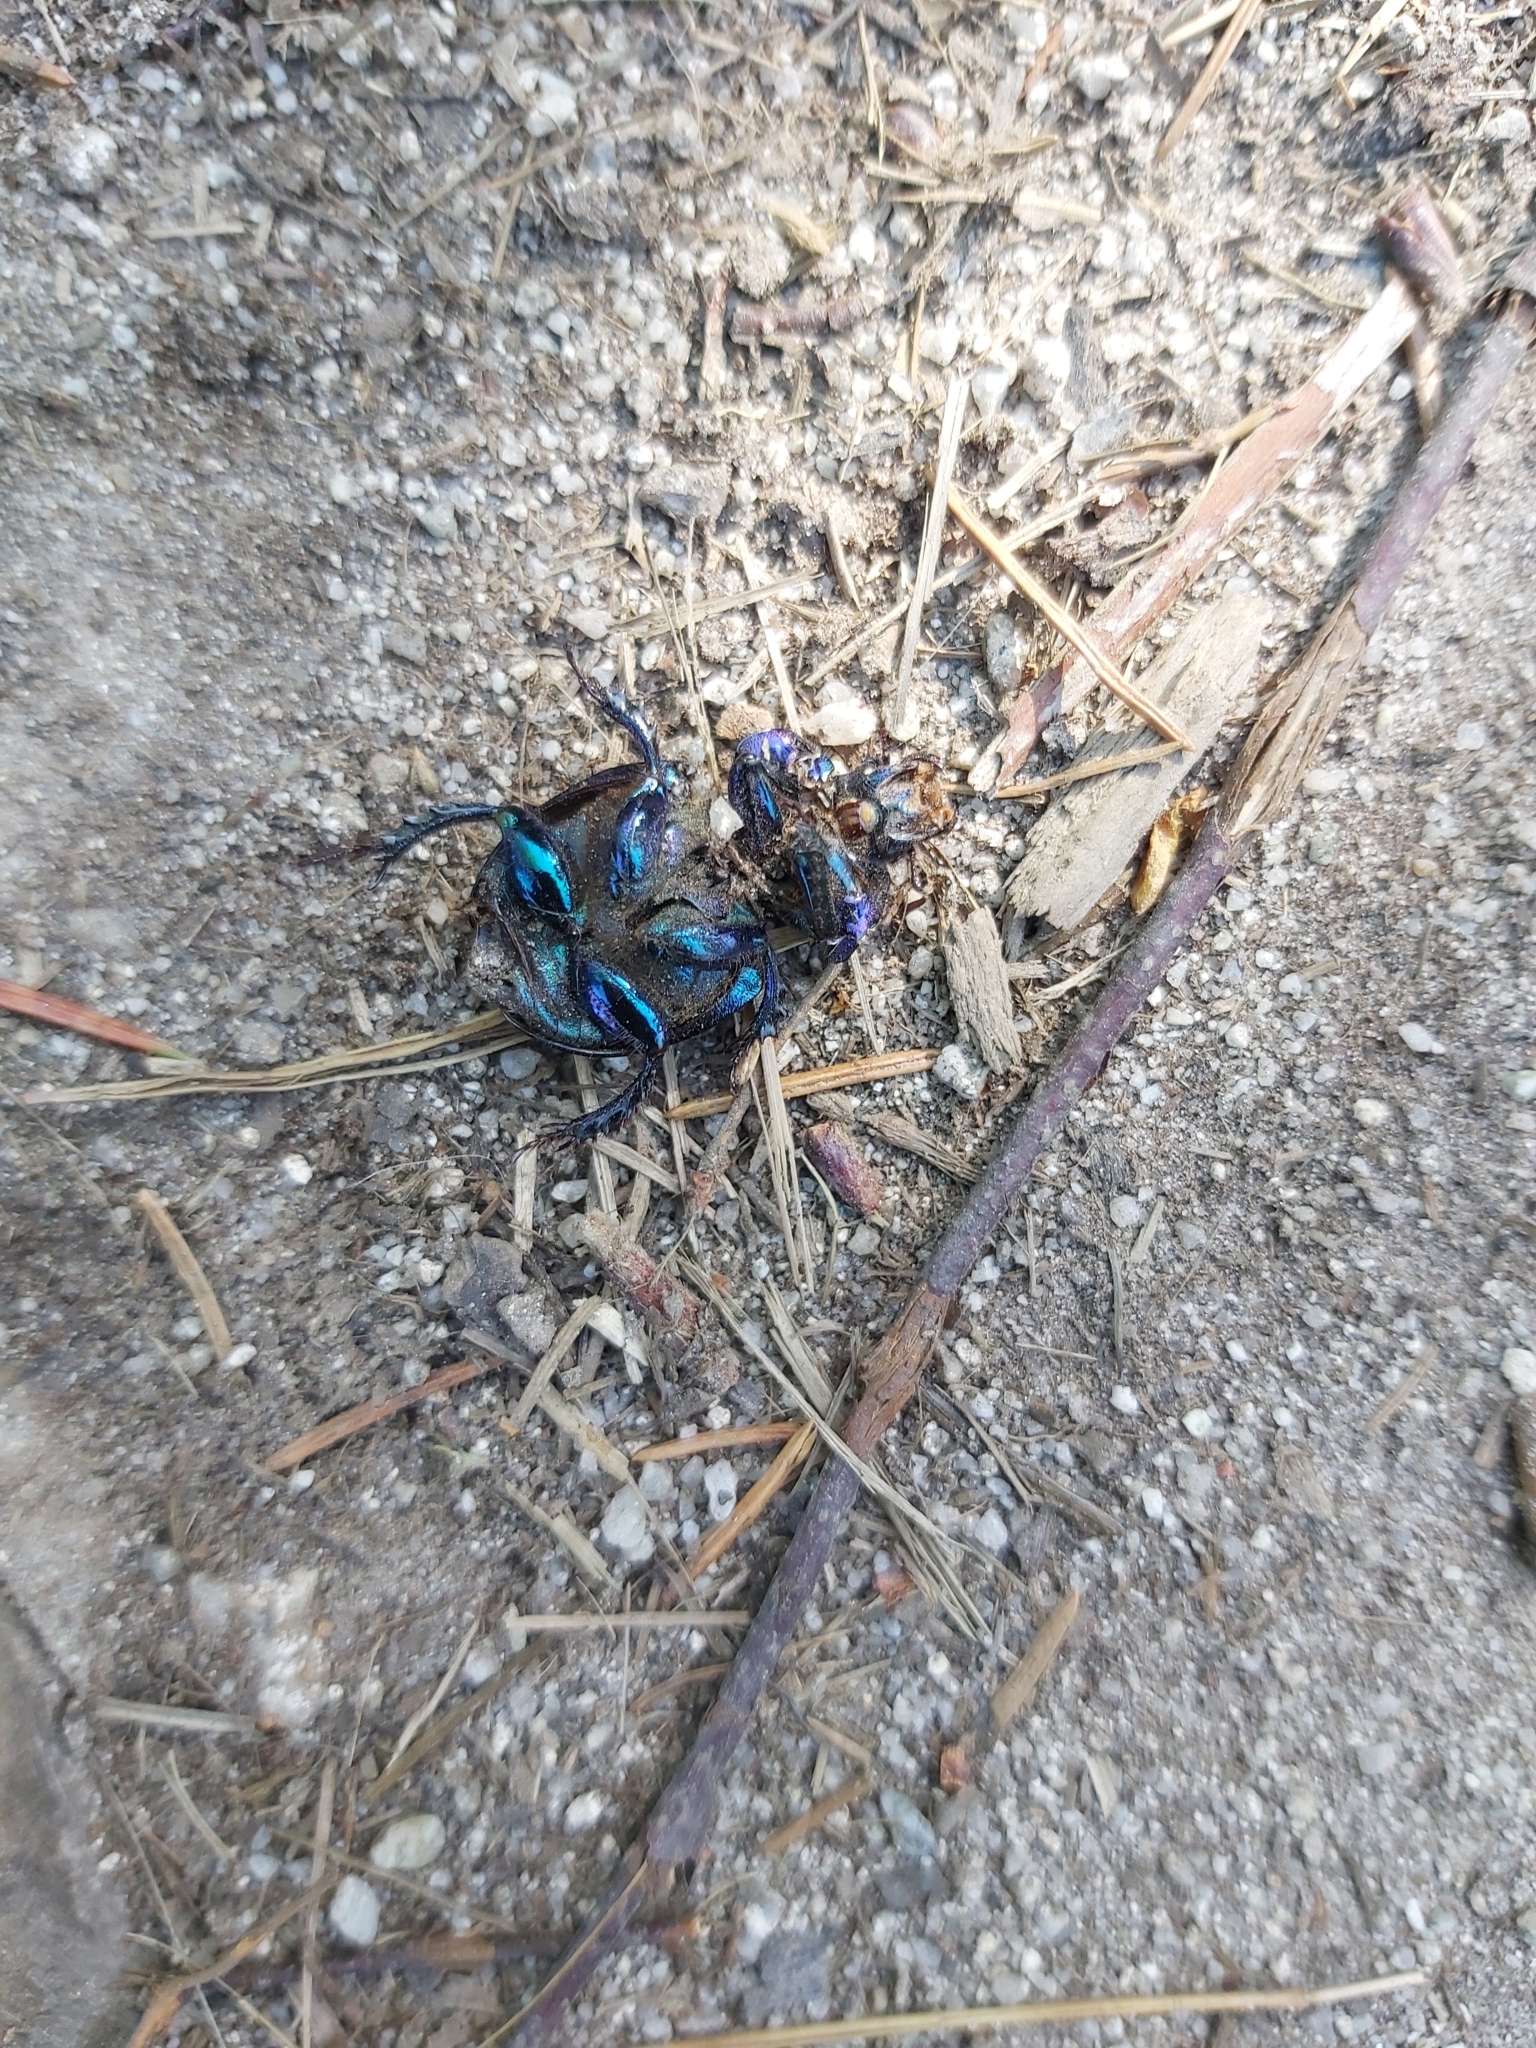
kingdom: Animalia
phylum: Arthropoda
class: Insecta
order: Coleoptera
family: Geotrupidae
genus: Anoplotrupes
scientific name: Anoplotrupes stercorosus
